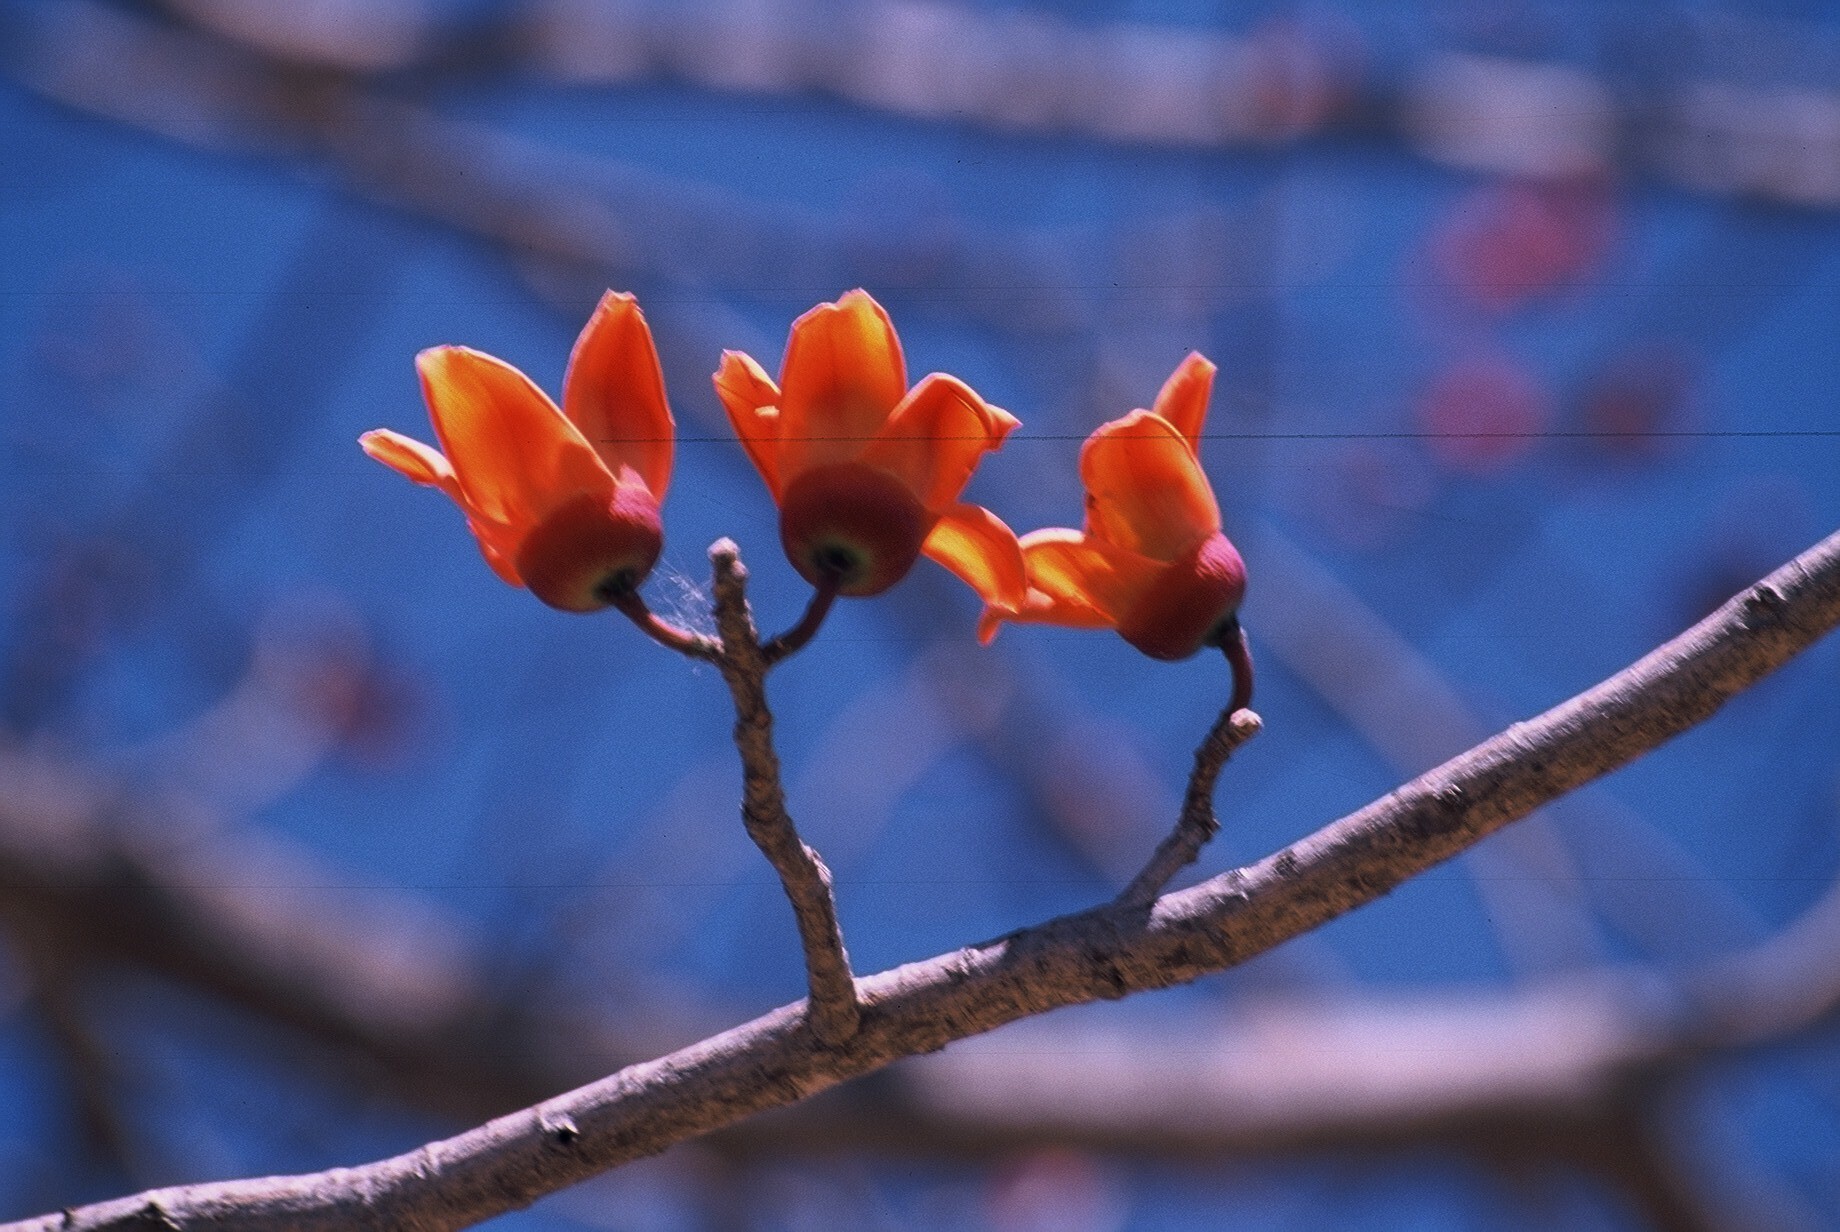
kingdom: Plantae
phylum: Tracheophyta
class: Magnoliopsida
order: Malvales
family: Malvaceae
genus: Bombax
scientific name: Bombax costatum
